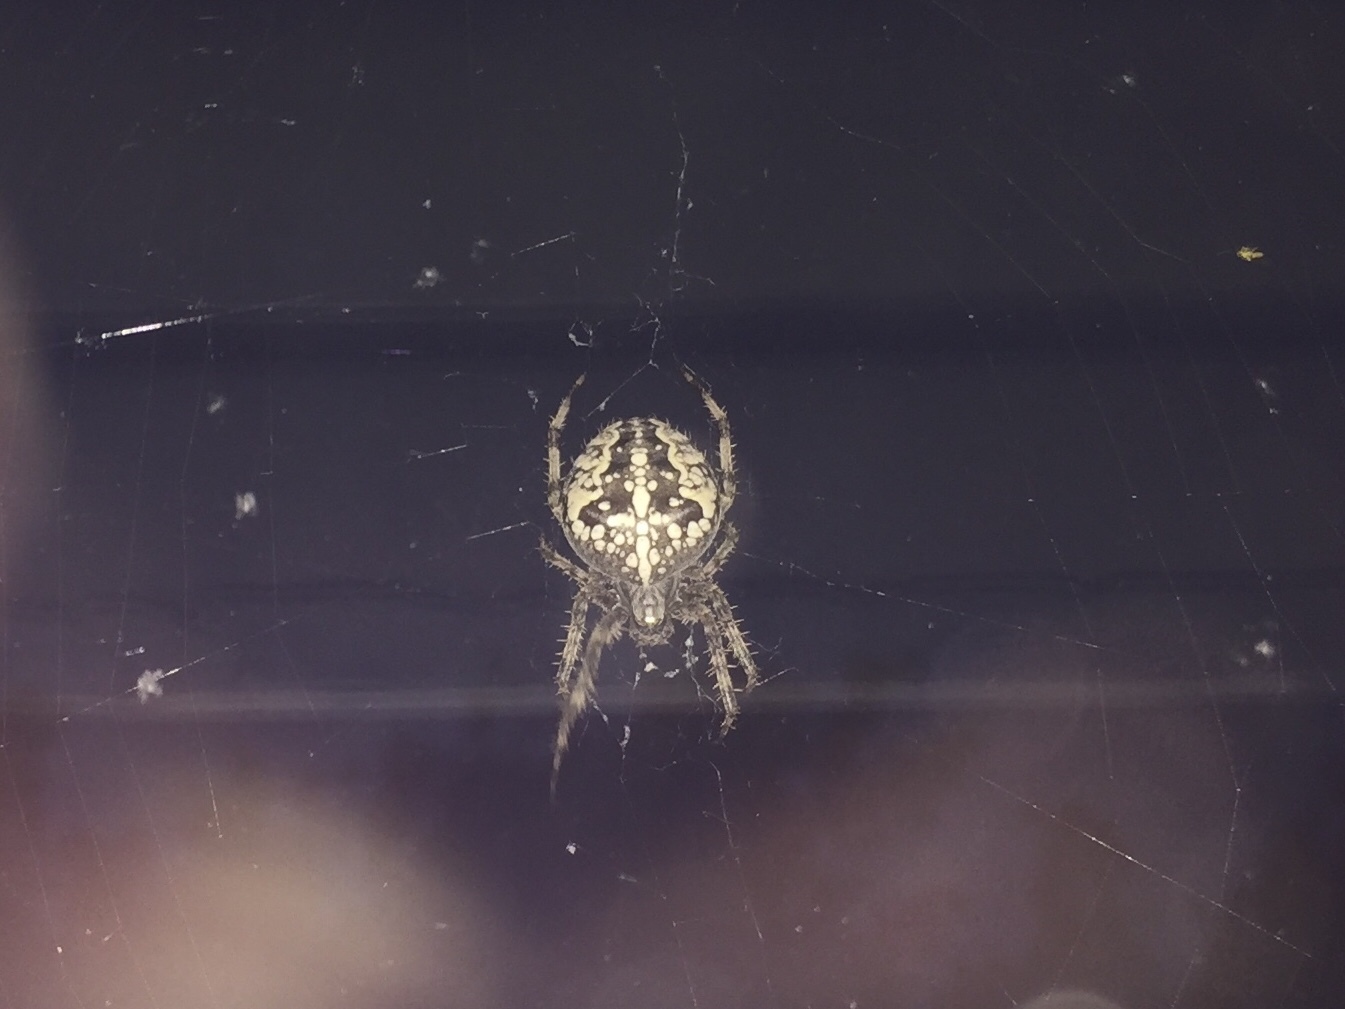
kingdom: Animalia
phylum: Arthropoda
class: Arachnida
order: Araneae
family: Araneidae
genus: Araneus
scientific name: Araneus diadematus
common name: Cross orbweaver
